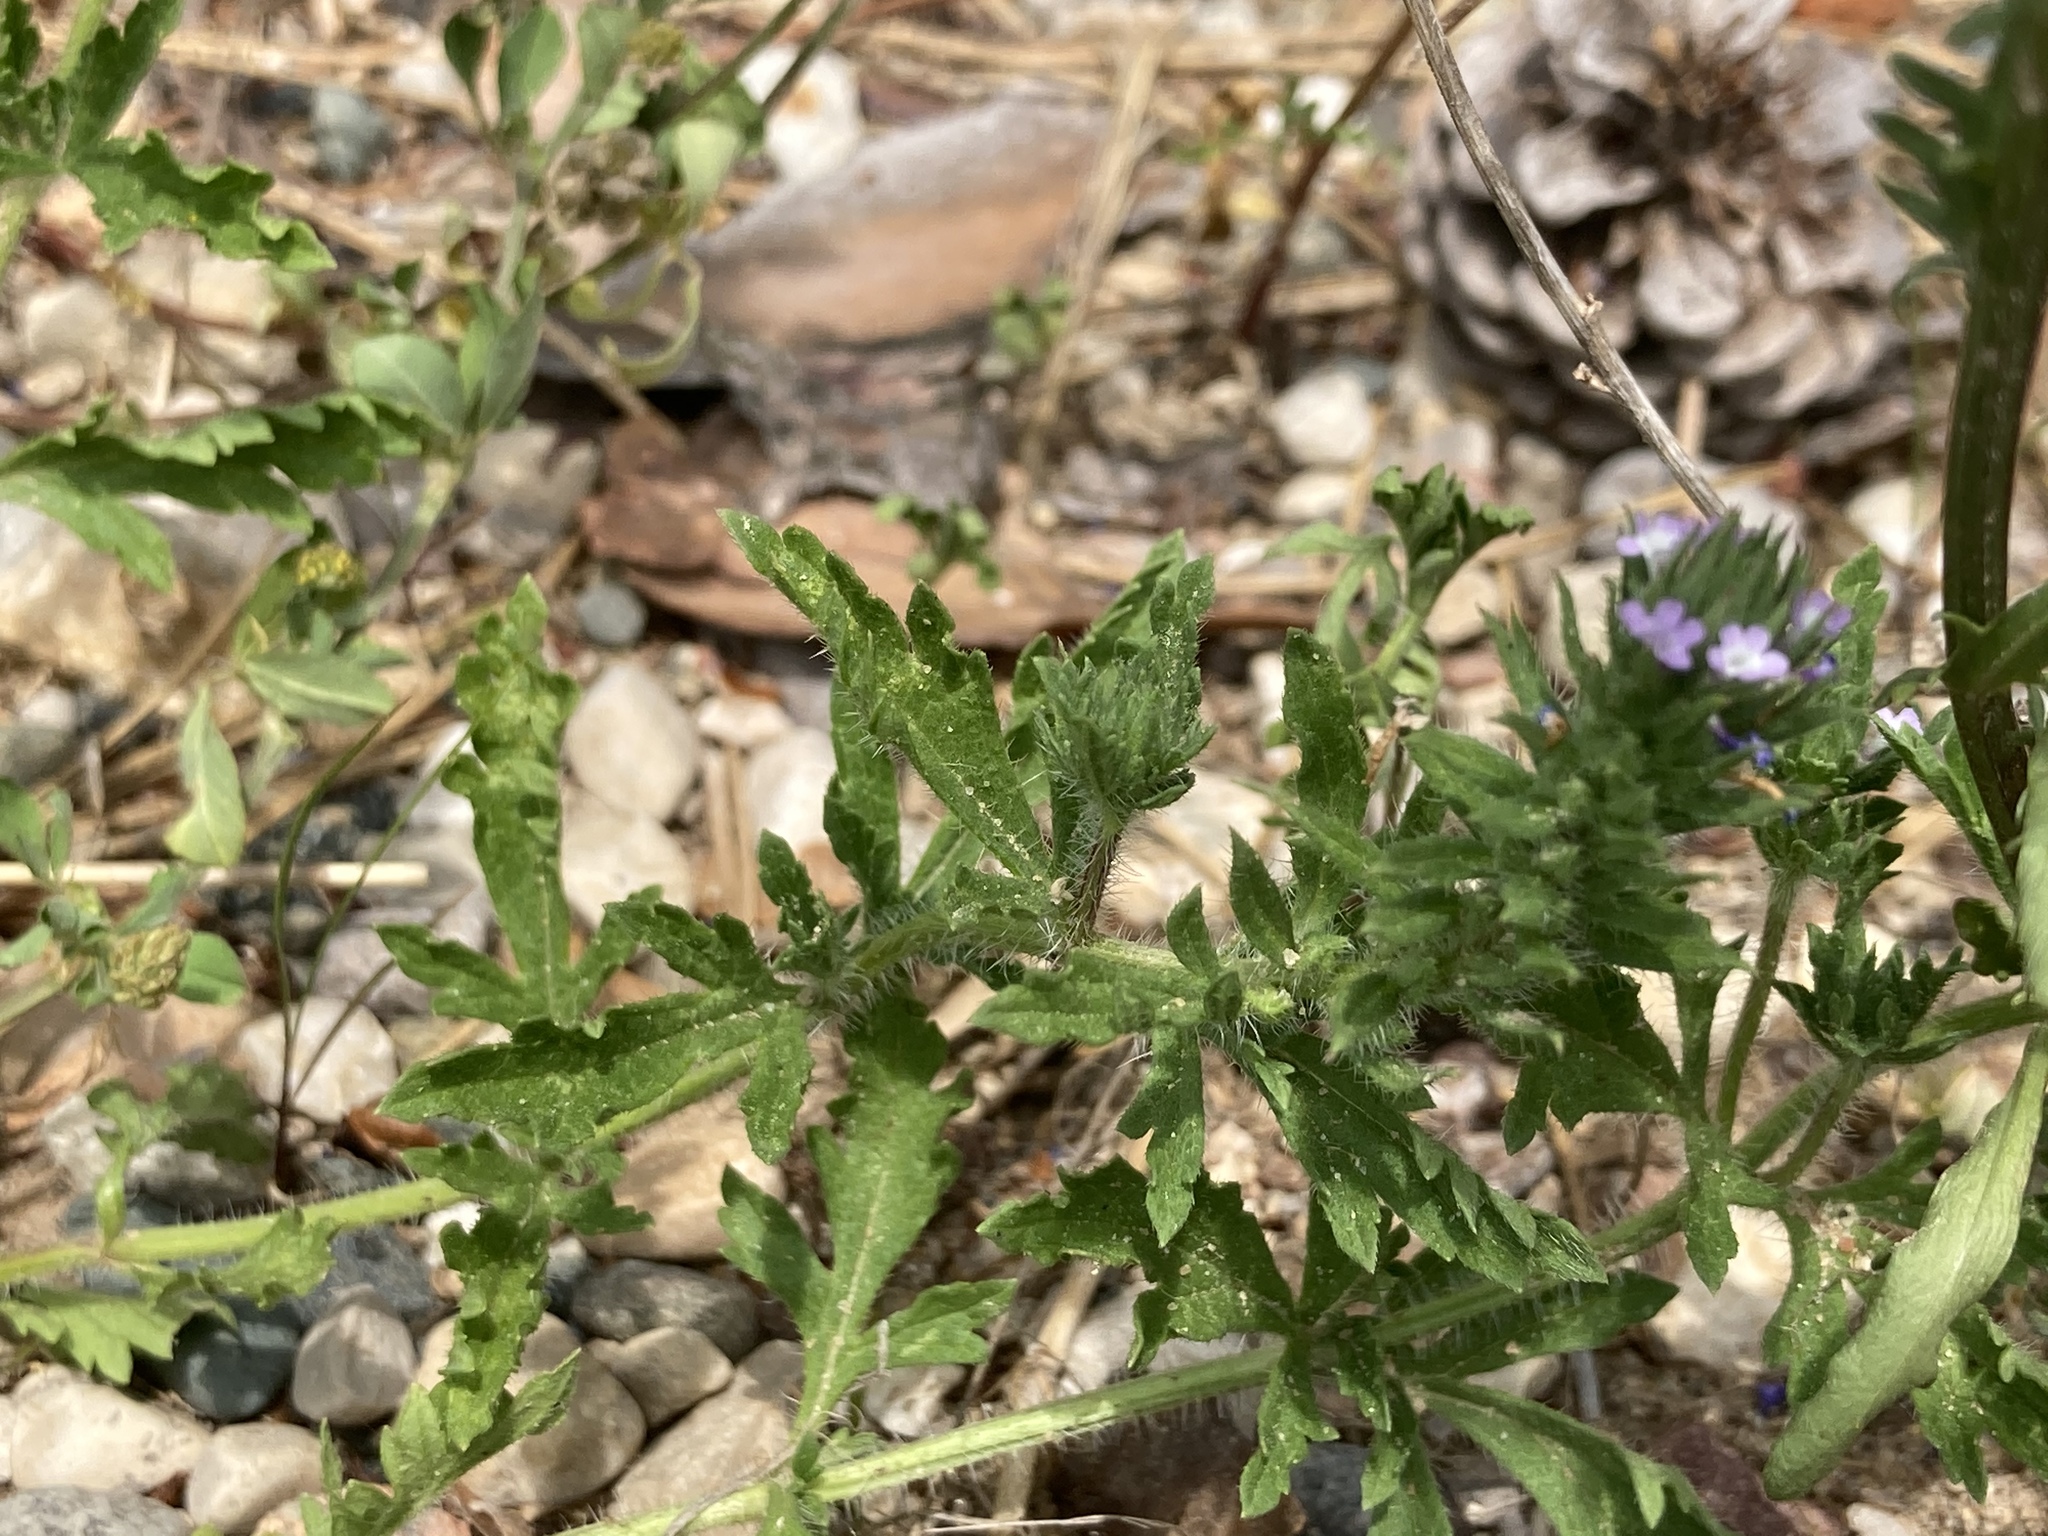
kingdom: Plantae
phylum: Tracheophyta
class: Magnoliopsida
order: Lamiales
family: Verbenaceae
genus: Verbena
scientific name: Verbena bracteata
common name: Bracted vervain
